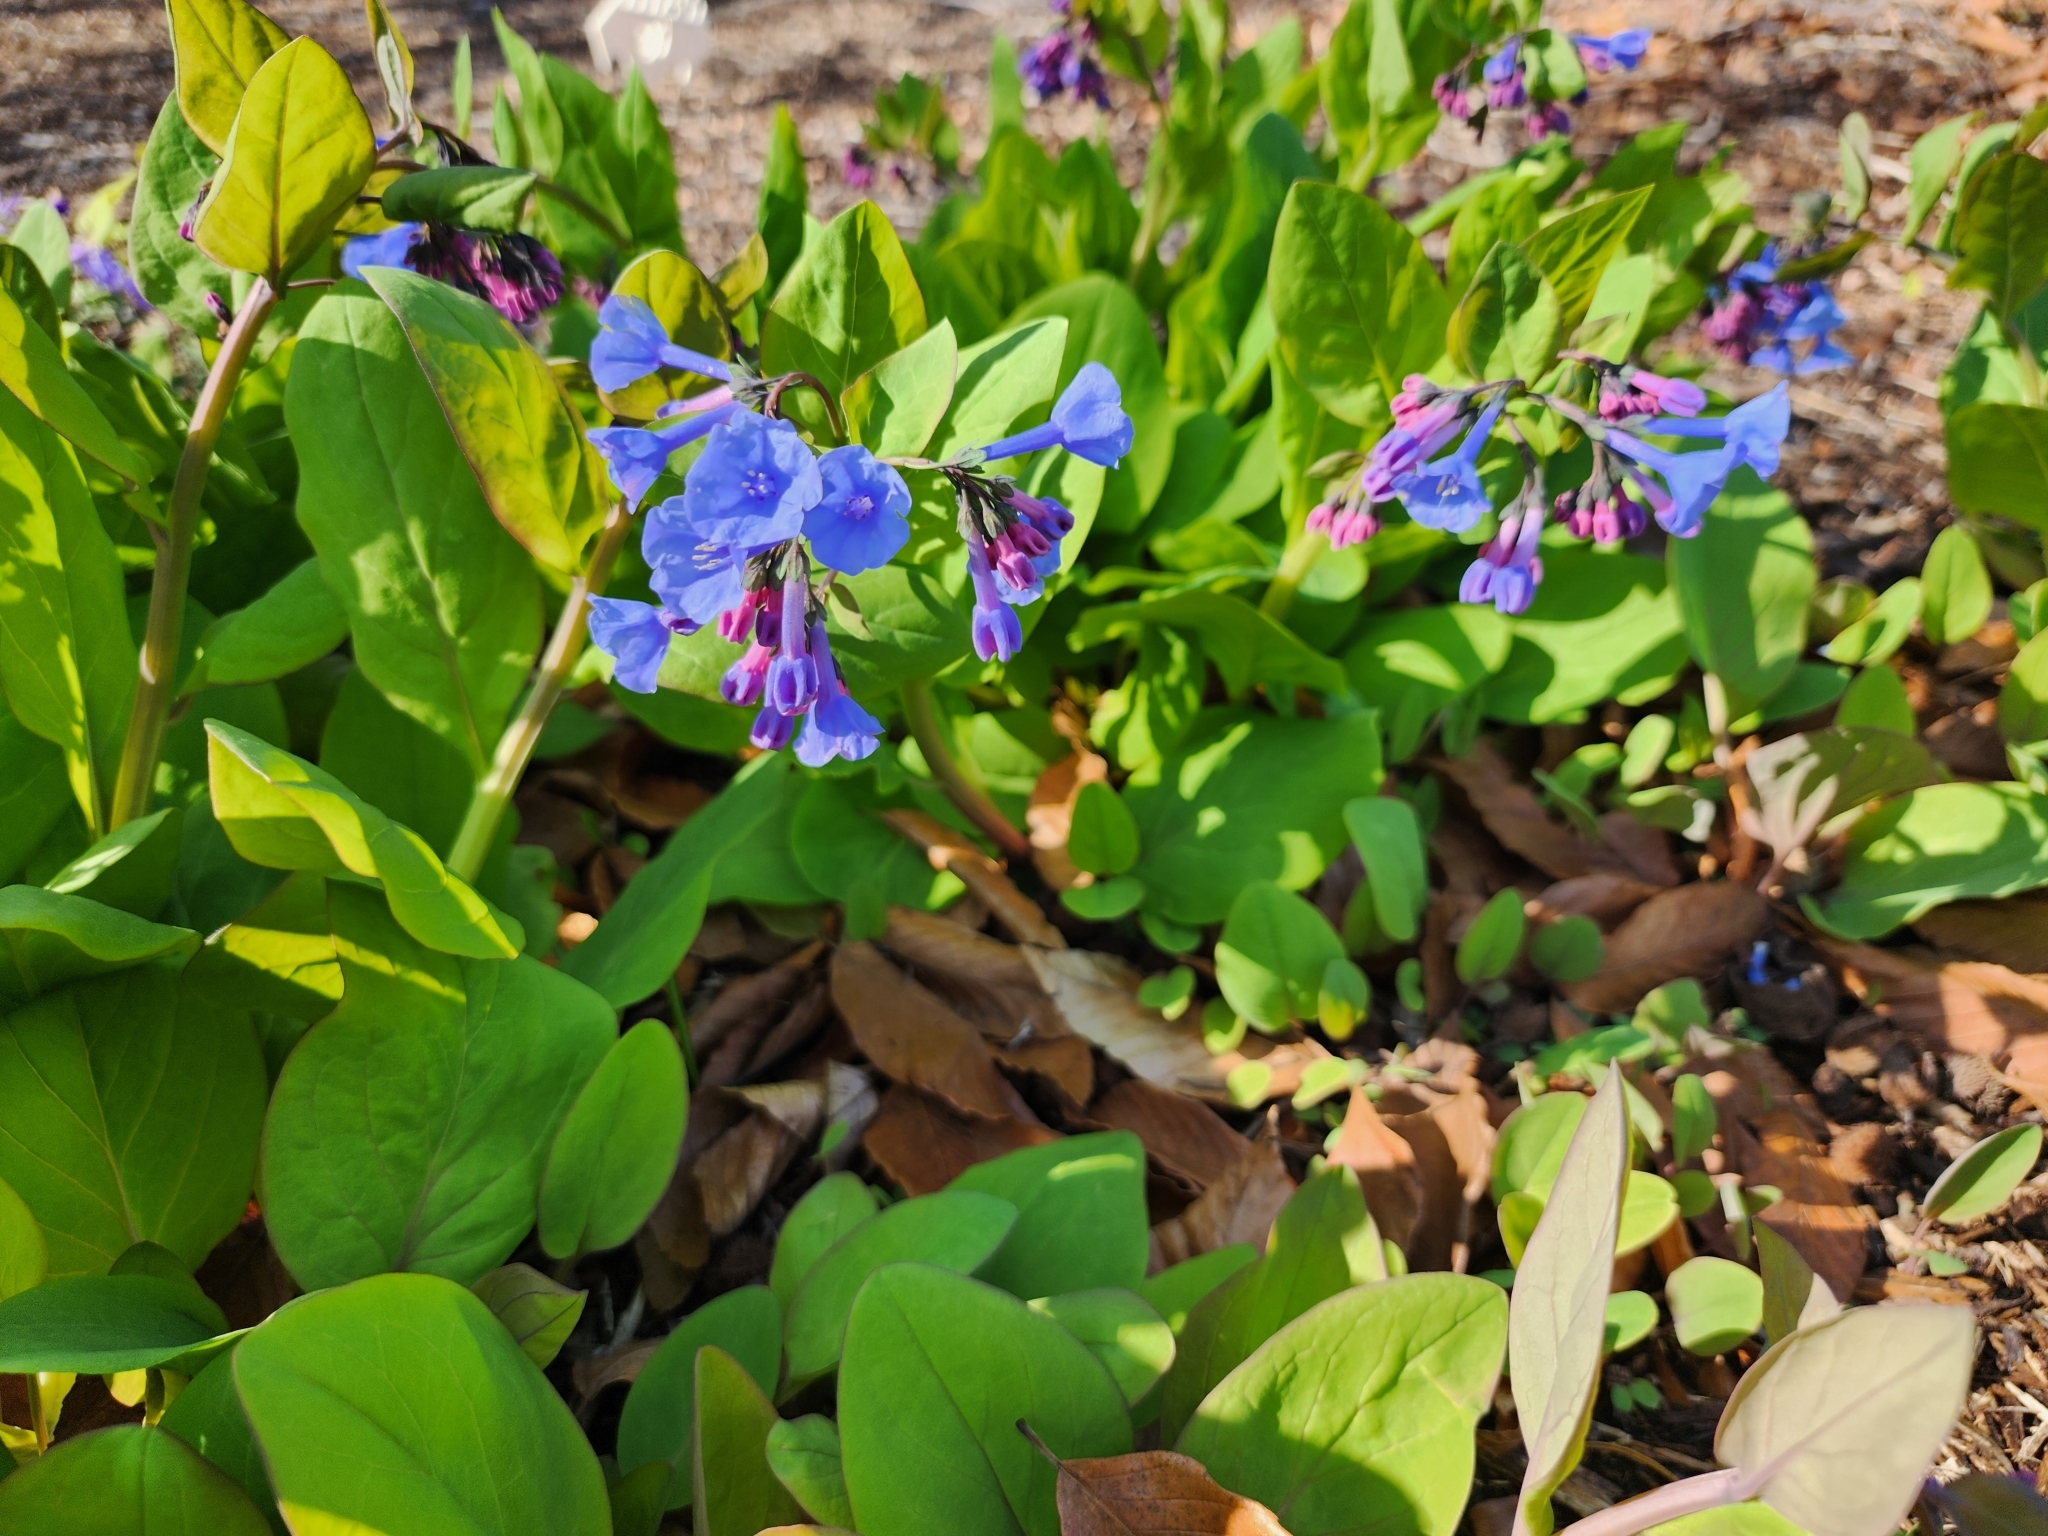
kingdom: Plantae
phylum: Tracheophyta
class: Magnoliopsida
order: Boraginales
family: Boraginaceae
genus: Mertensia
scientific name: Mertensia virginica
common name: Virginia bluebells
